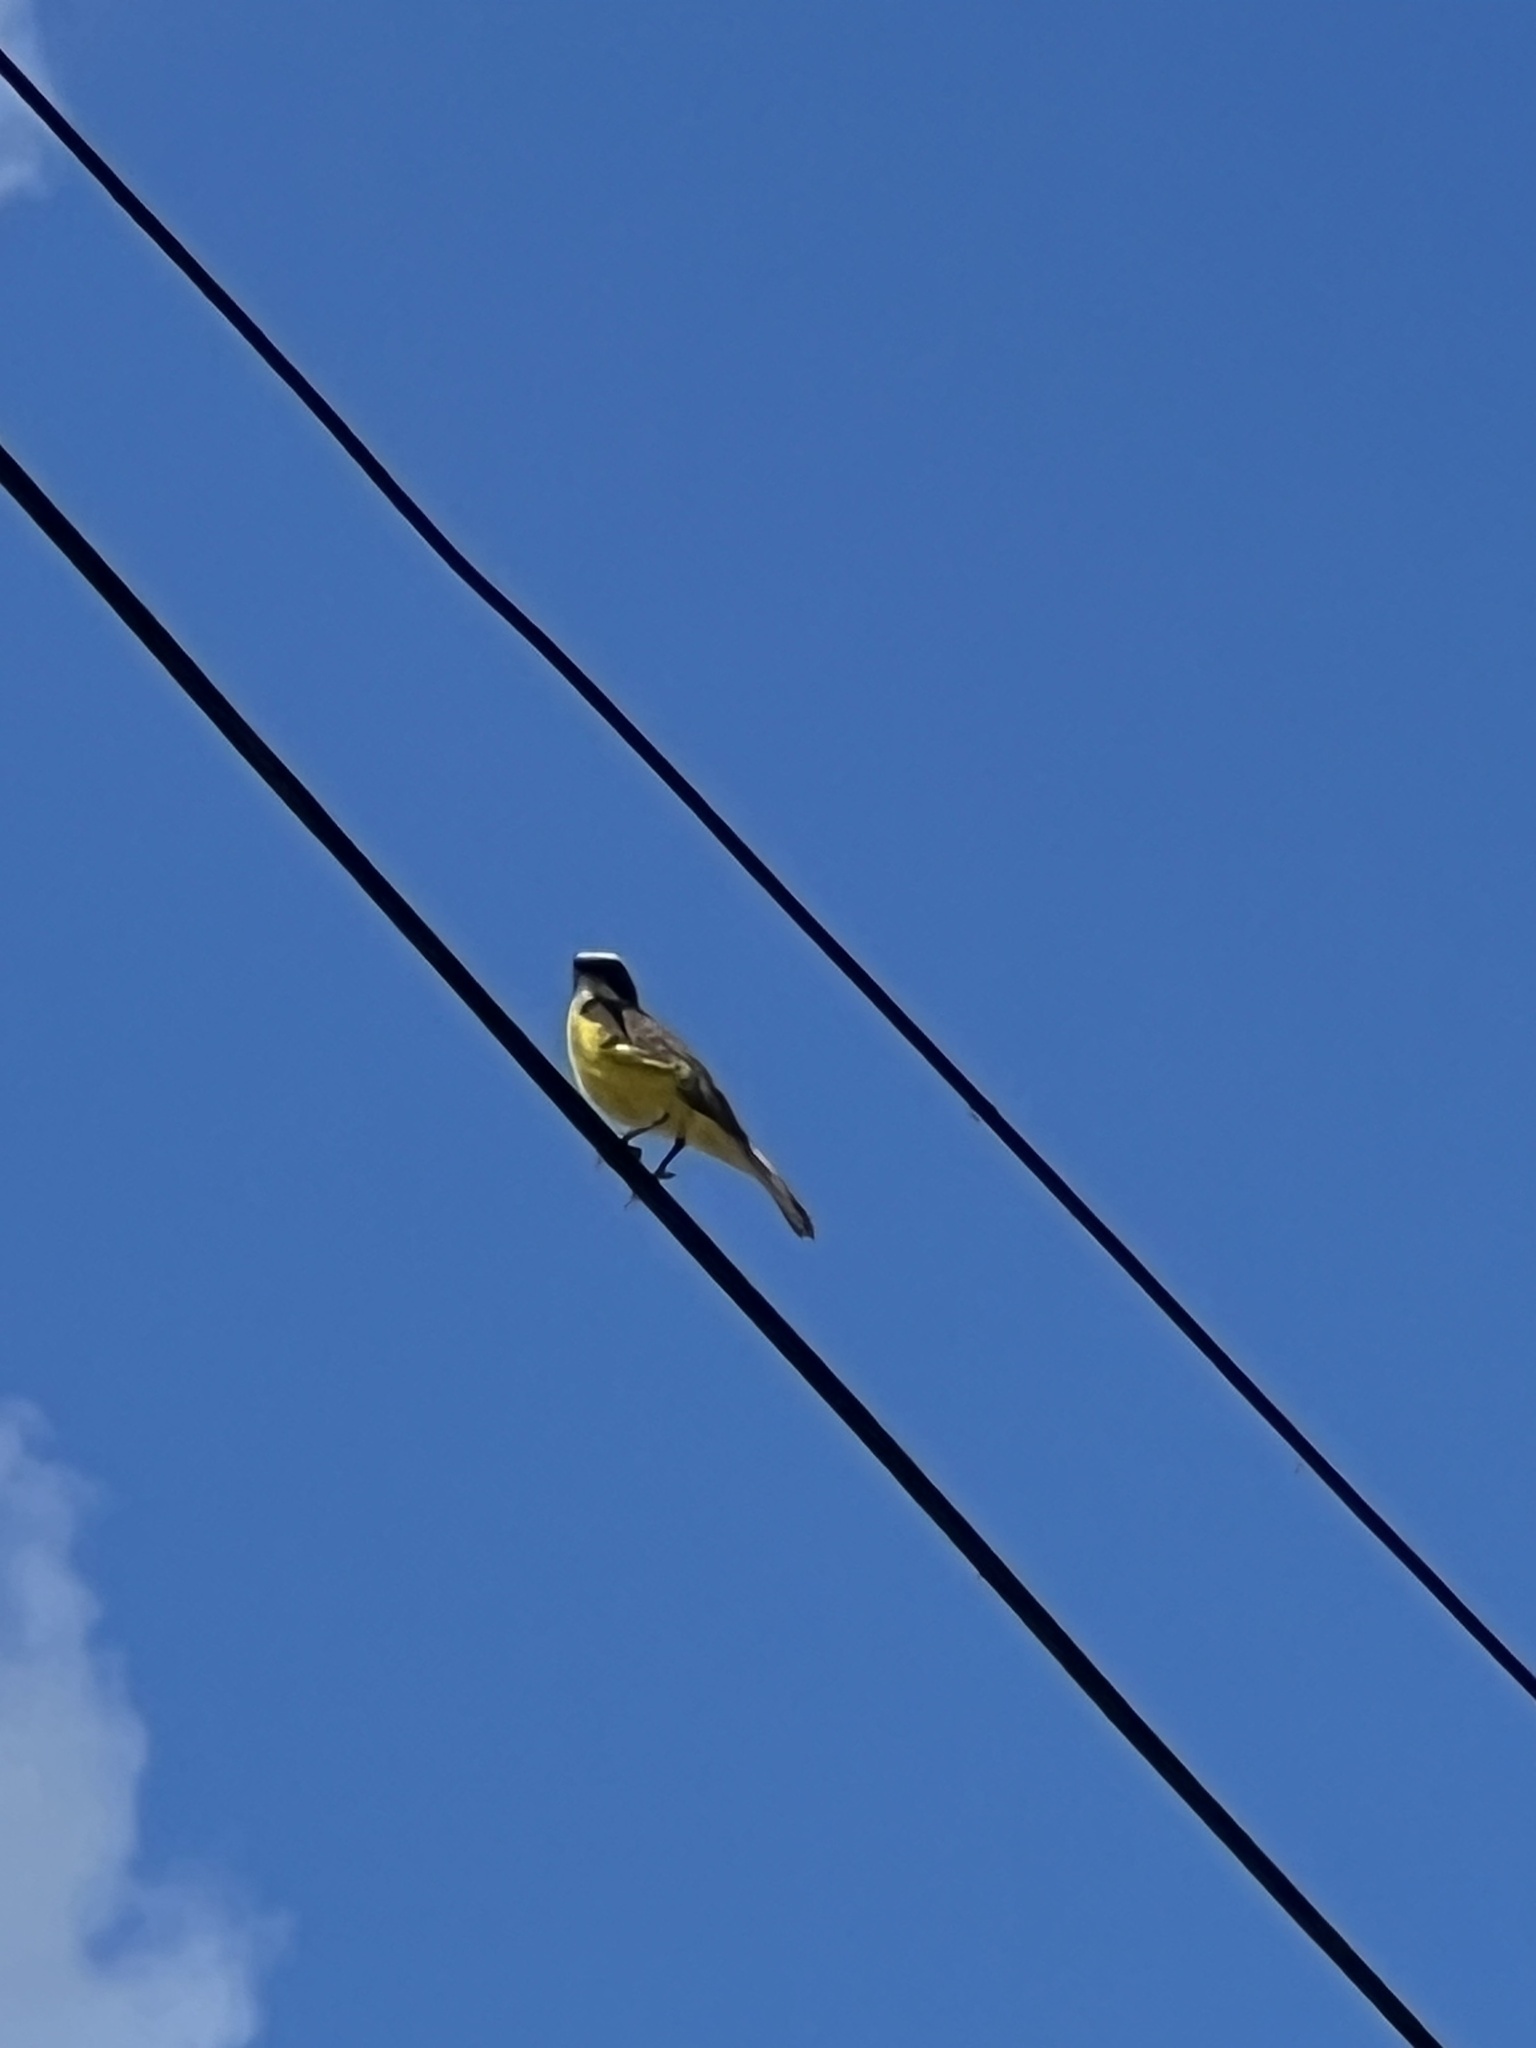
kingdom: Animalia
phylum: Chordata
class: Aves
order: Passeriformes
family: Tyrannidae
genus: Myiozetetes
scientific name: Myiozetetes similis
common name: Social flycatcher
